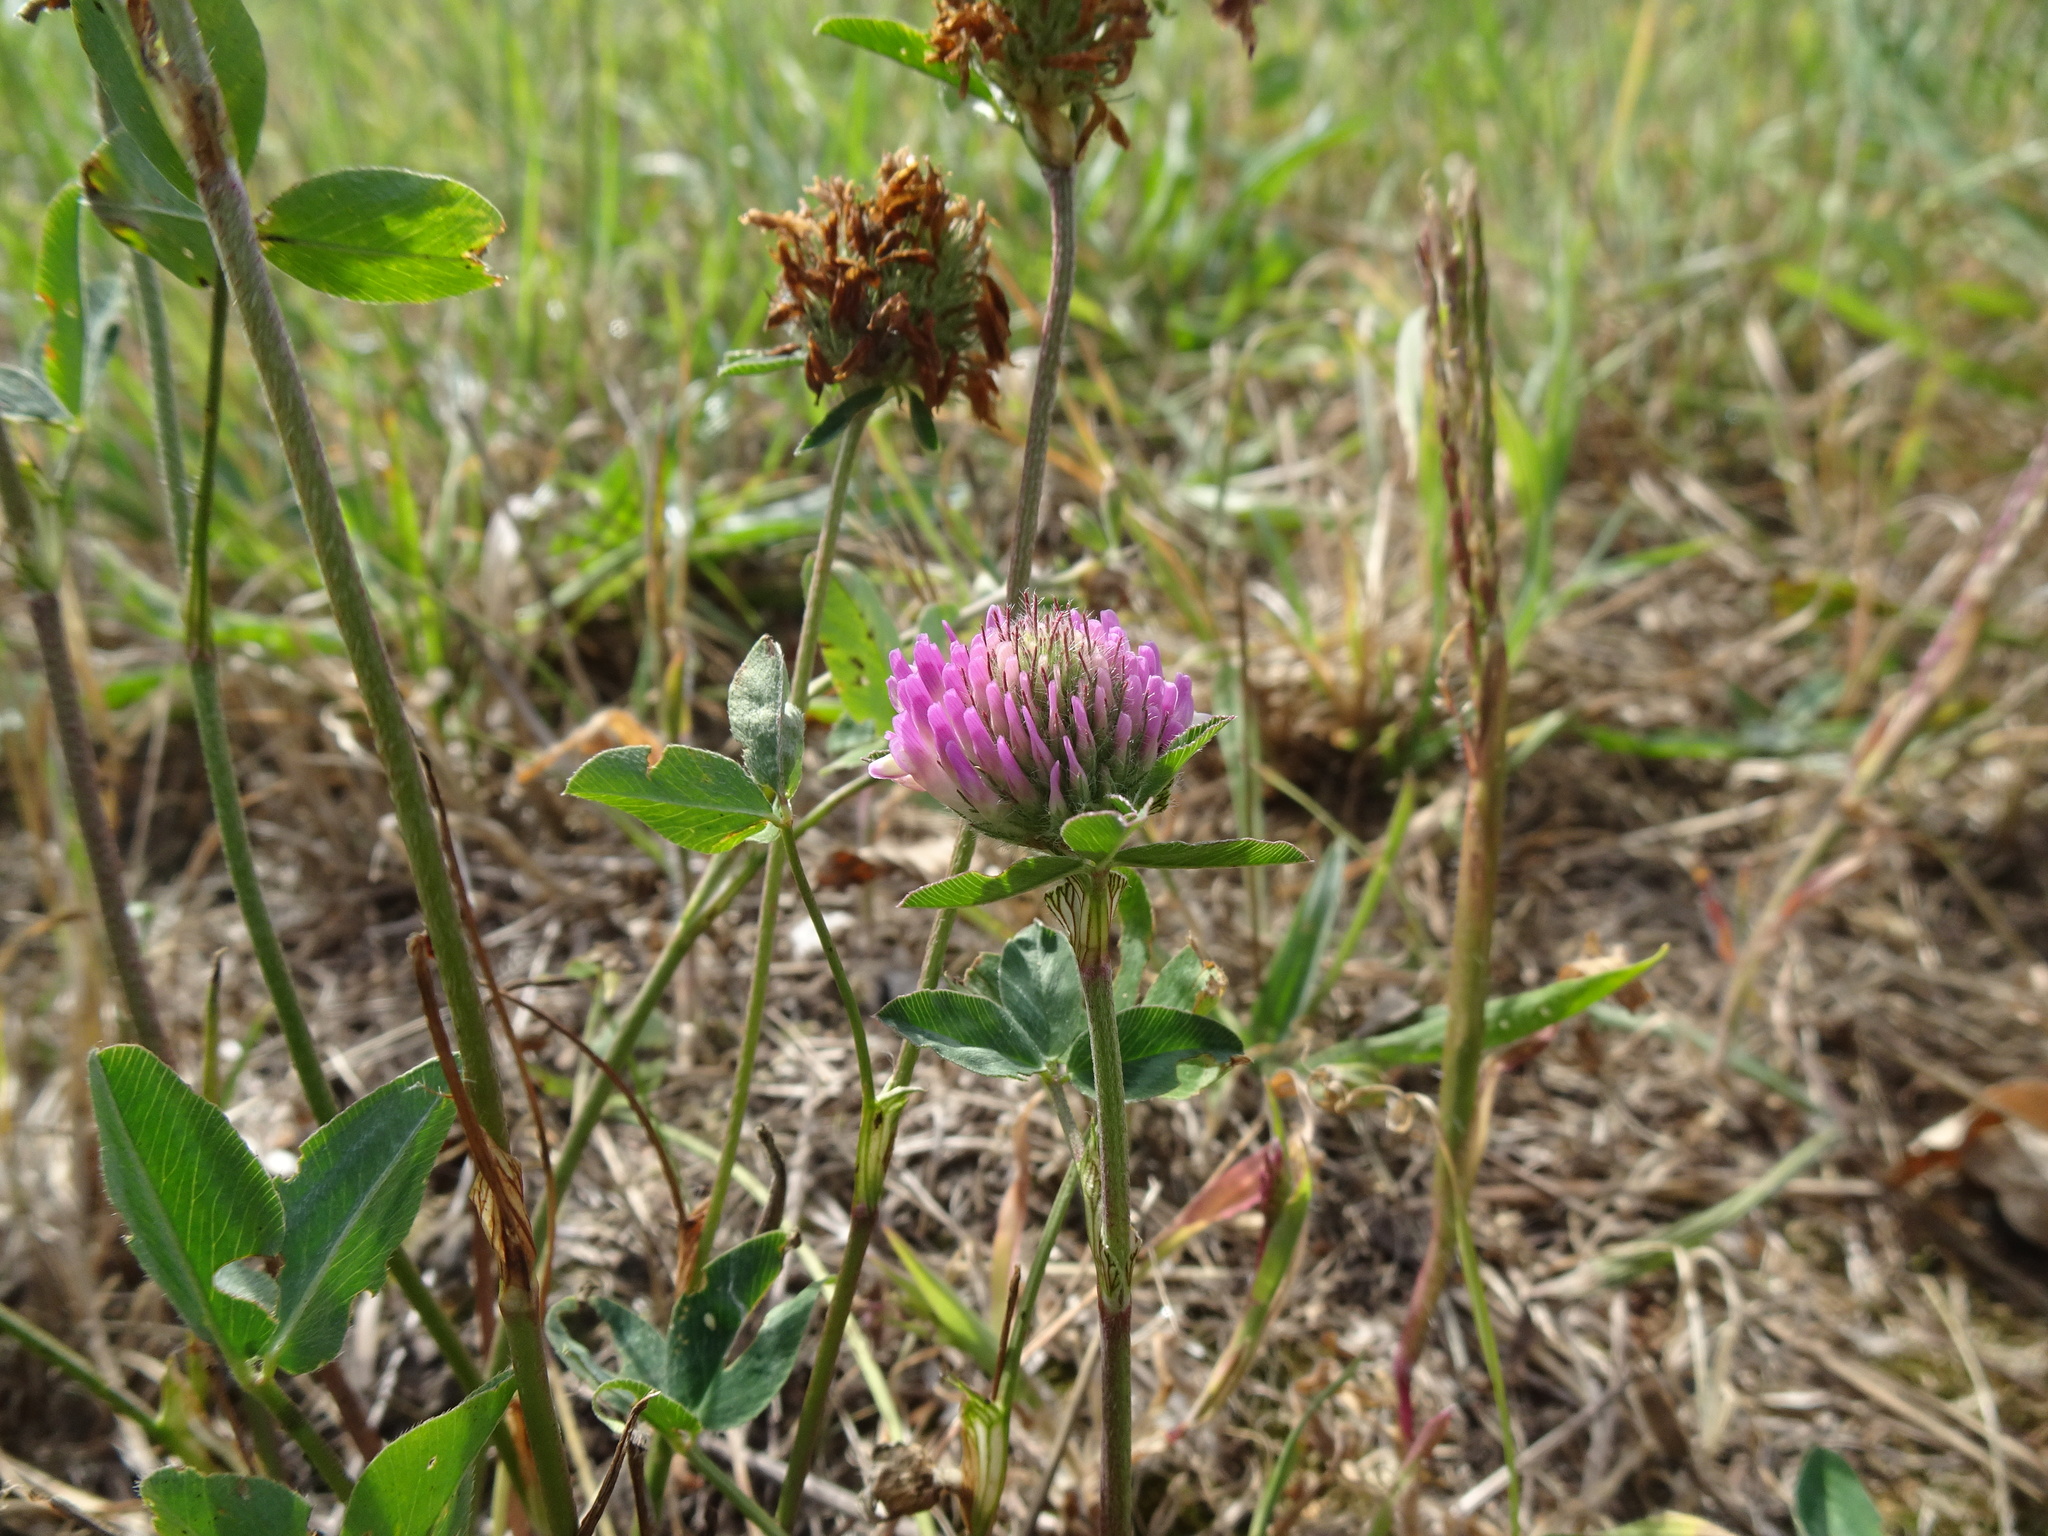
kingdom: Plantae
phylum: Tracheophyta
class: Magnoliopsida
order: Fabales
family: Fabaceae
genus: Trifolium
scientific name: Trifolium pratense
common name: Red clover
